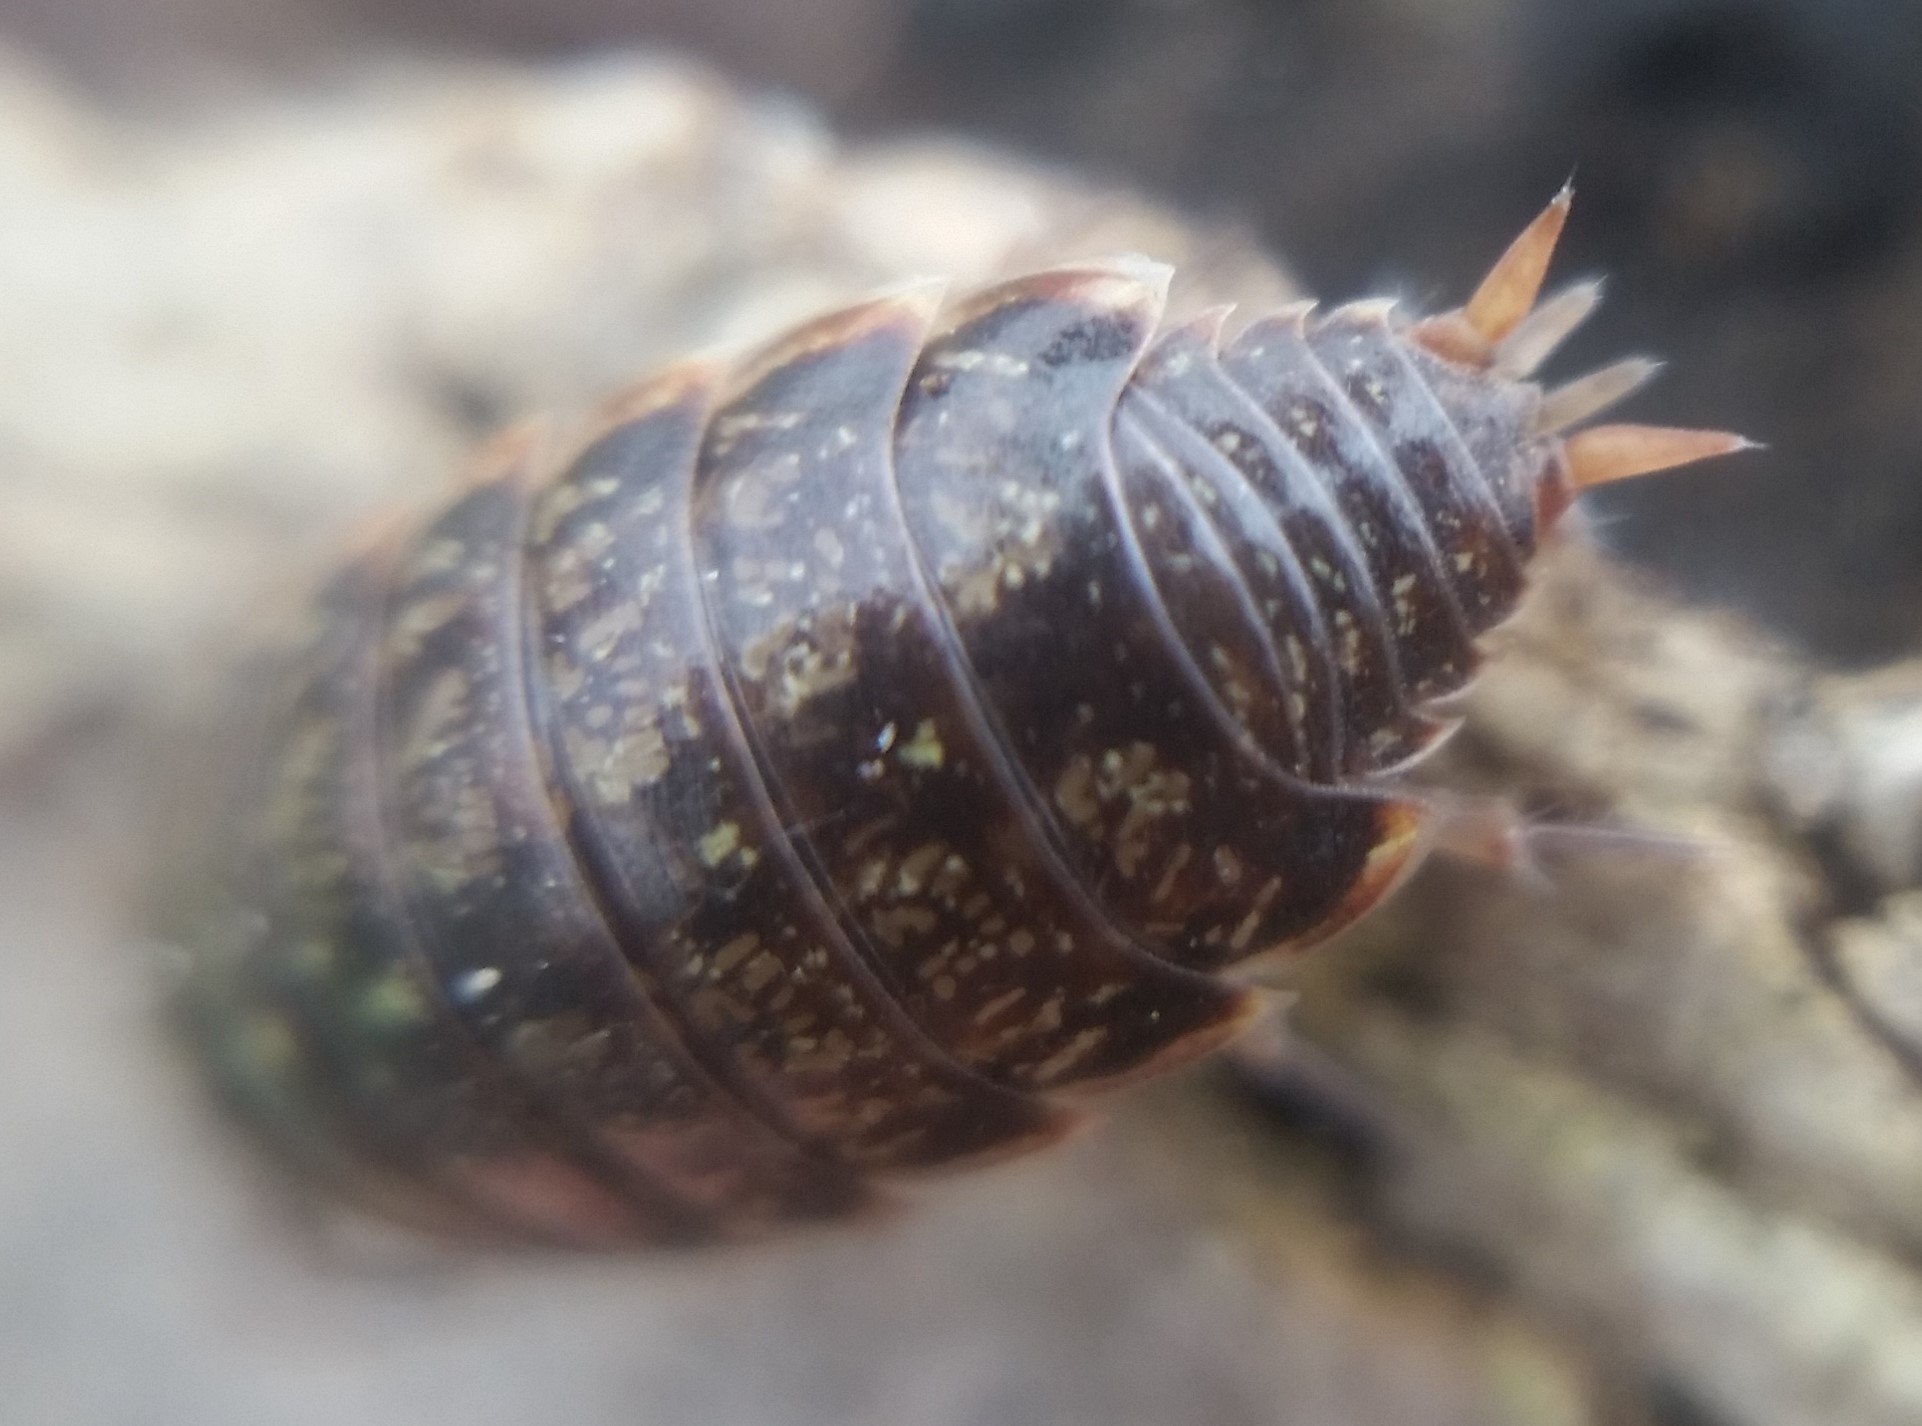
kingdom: Animalia
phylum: Arthropoda
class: Malacostraca
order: Isopoda
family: Philosciidae
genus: Philoscia
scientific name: Philoscia muscorum
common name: Common striped woodlouse
